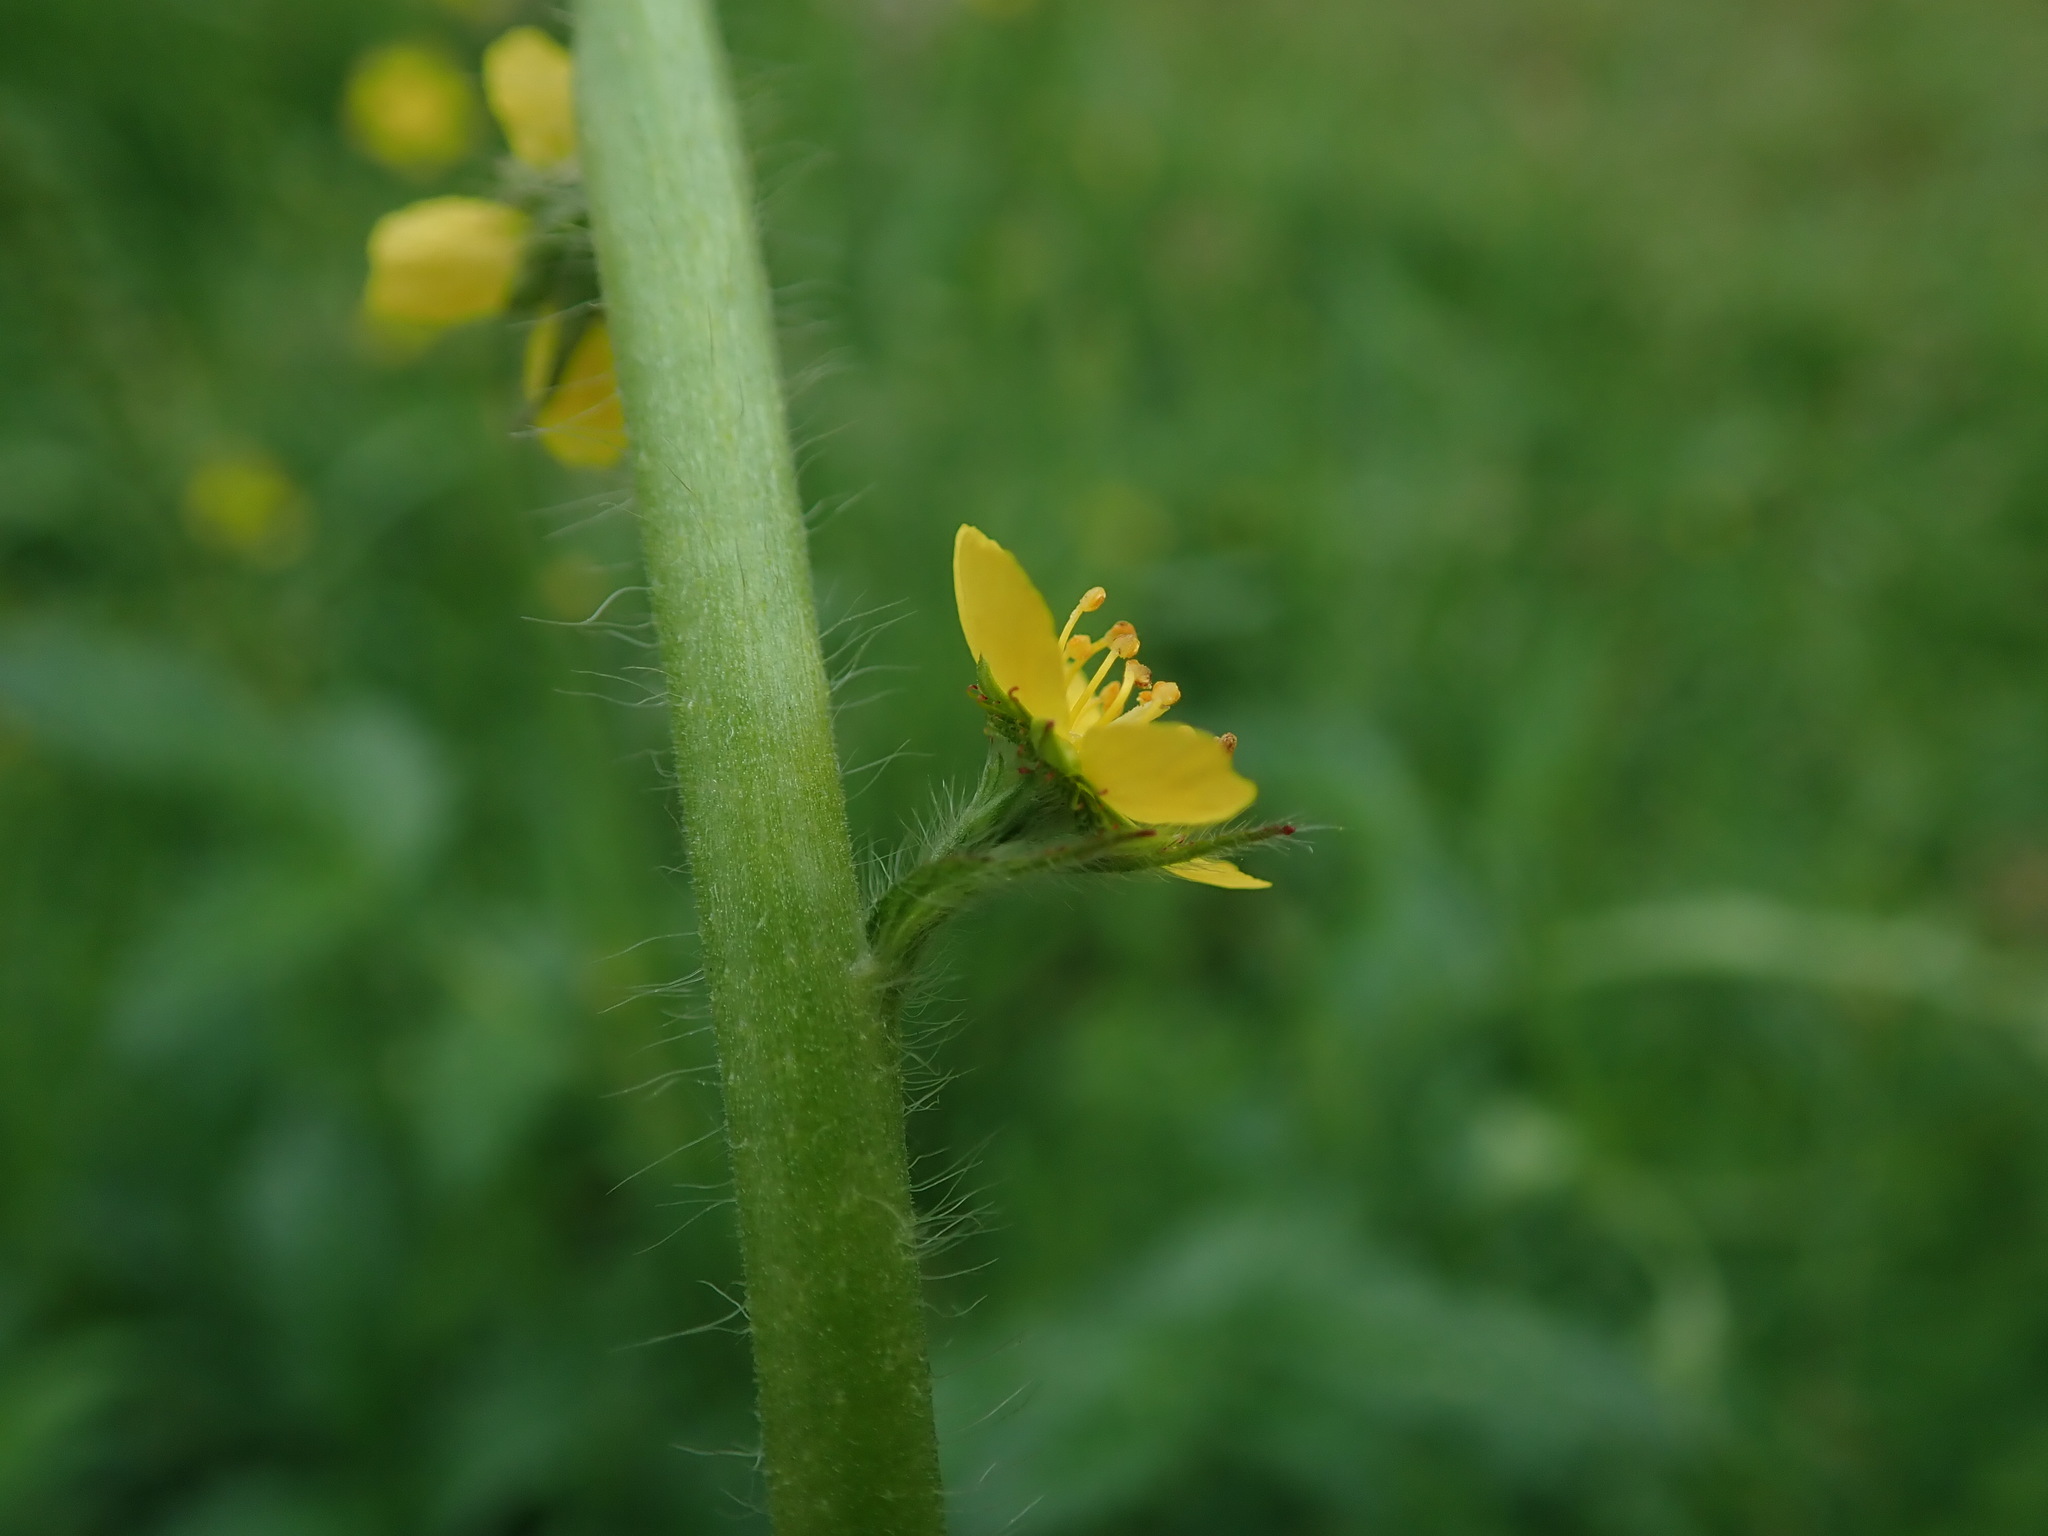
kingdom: Plantae
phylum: Tracheophyta
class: Magnoliopsida
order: Rosales
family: Rosaceae
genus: Agrimonia
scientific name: Agrimonia eupatoria
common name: Agrimony
